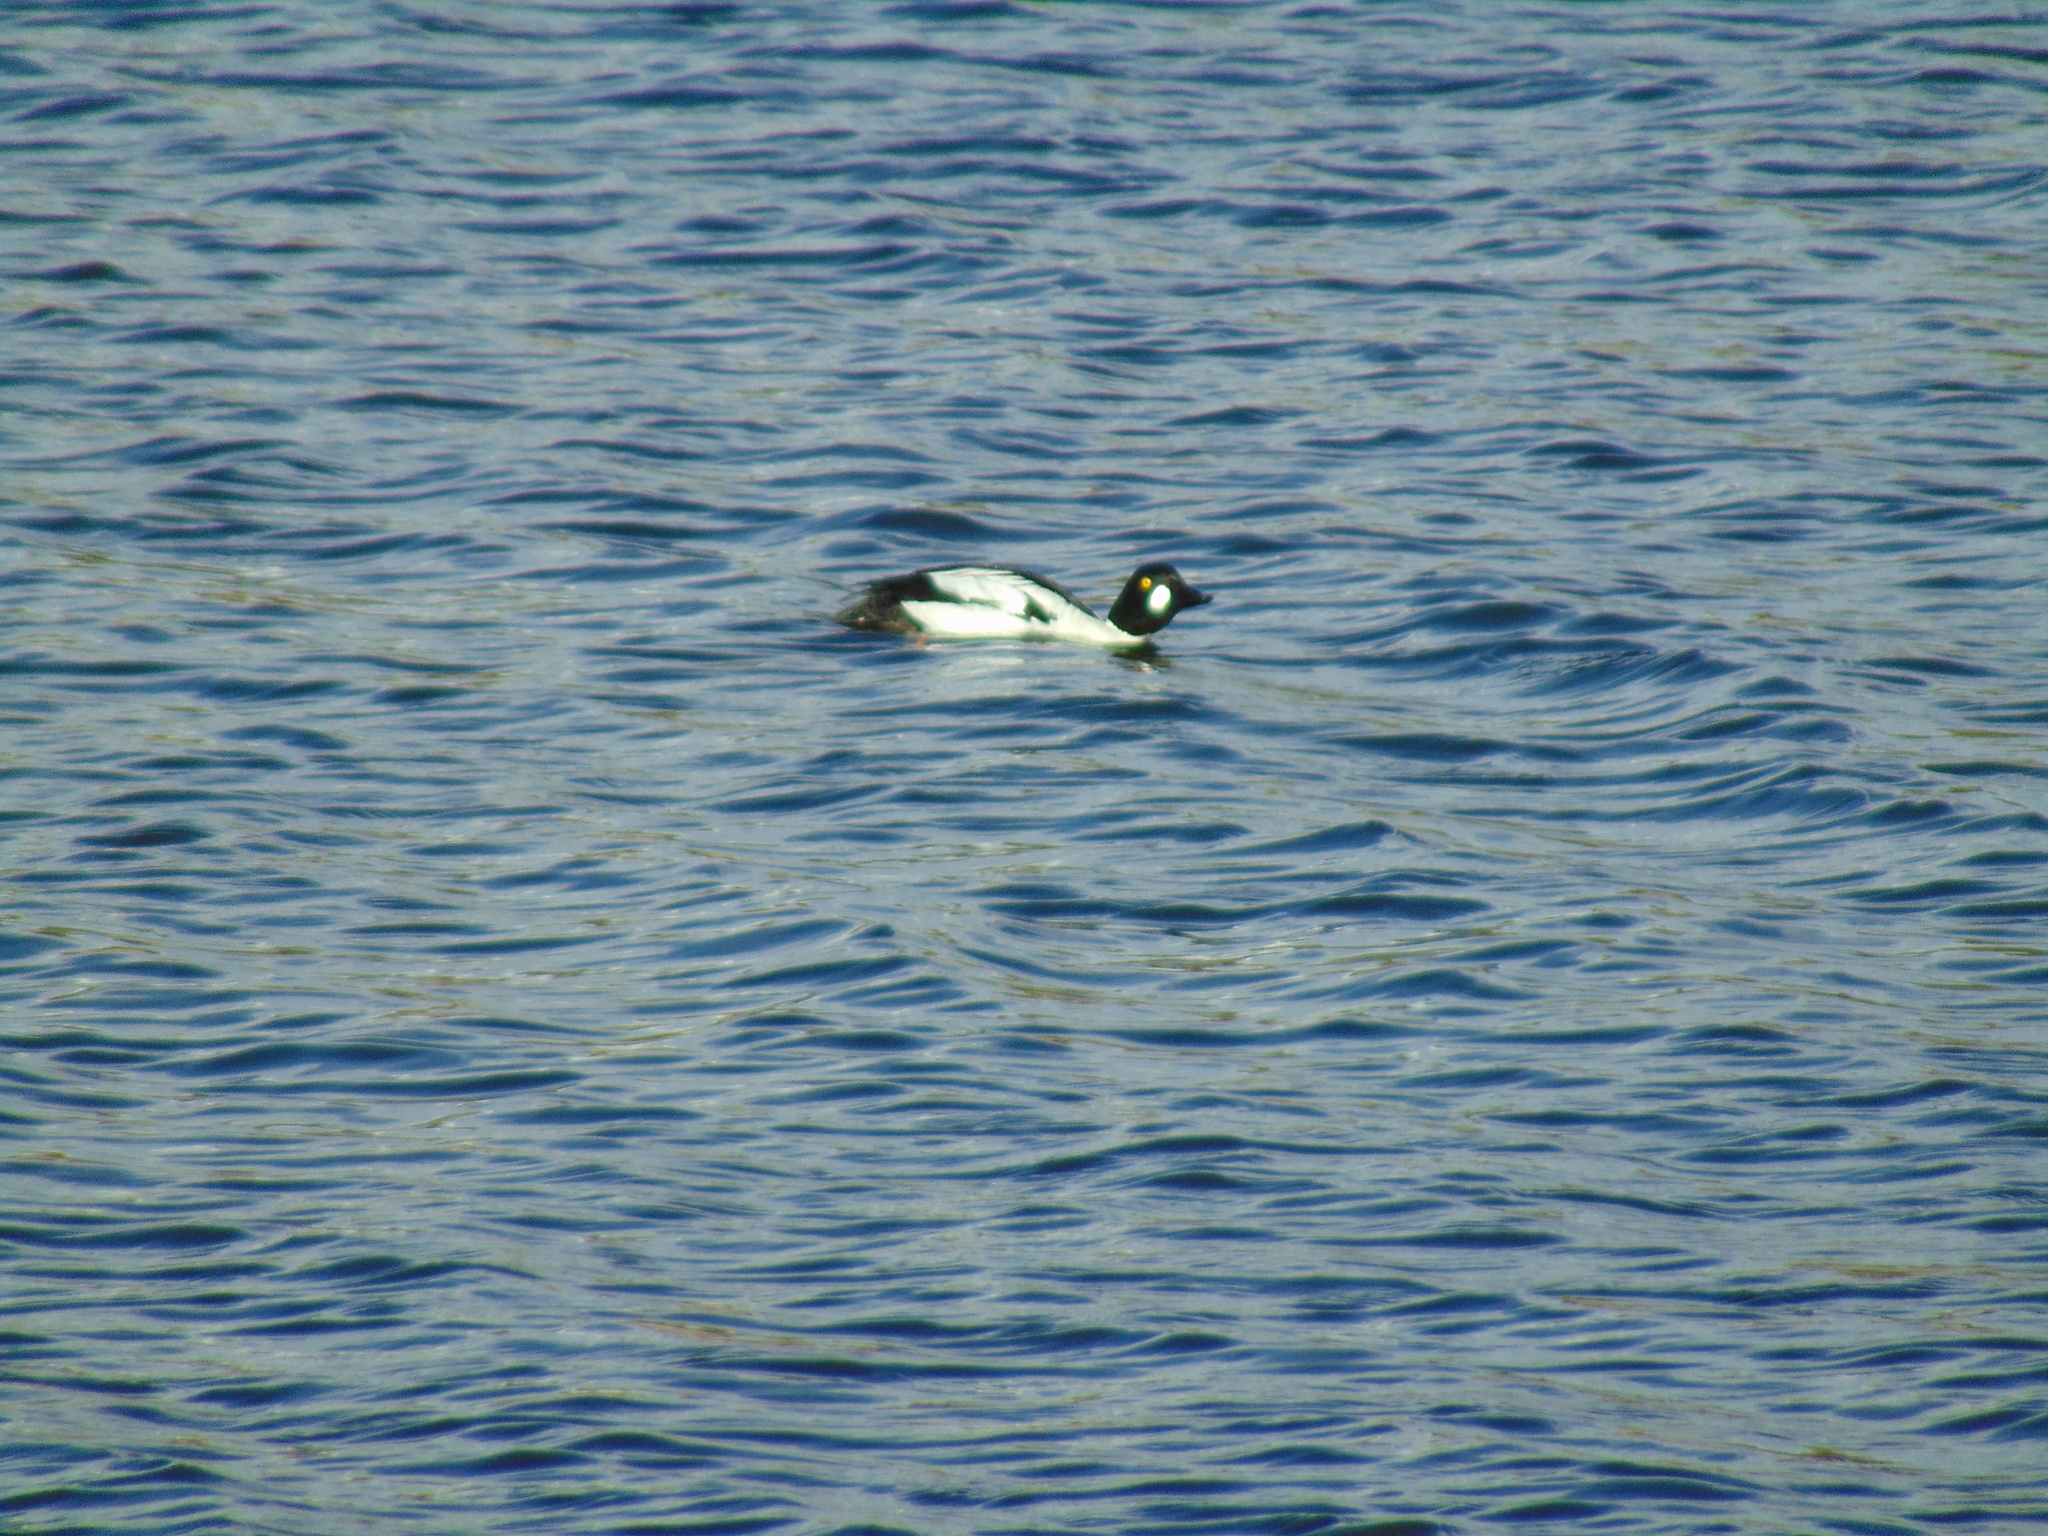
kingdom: Animalia
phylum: Chordata
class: Aves
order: Anseriformes
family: Anatidae
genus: Bucephala
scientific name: Bucephala clangula
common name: Common goldeneye
